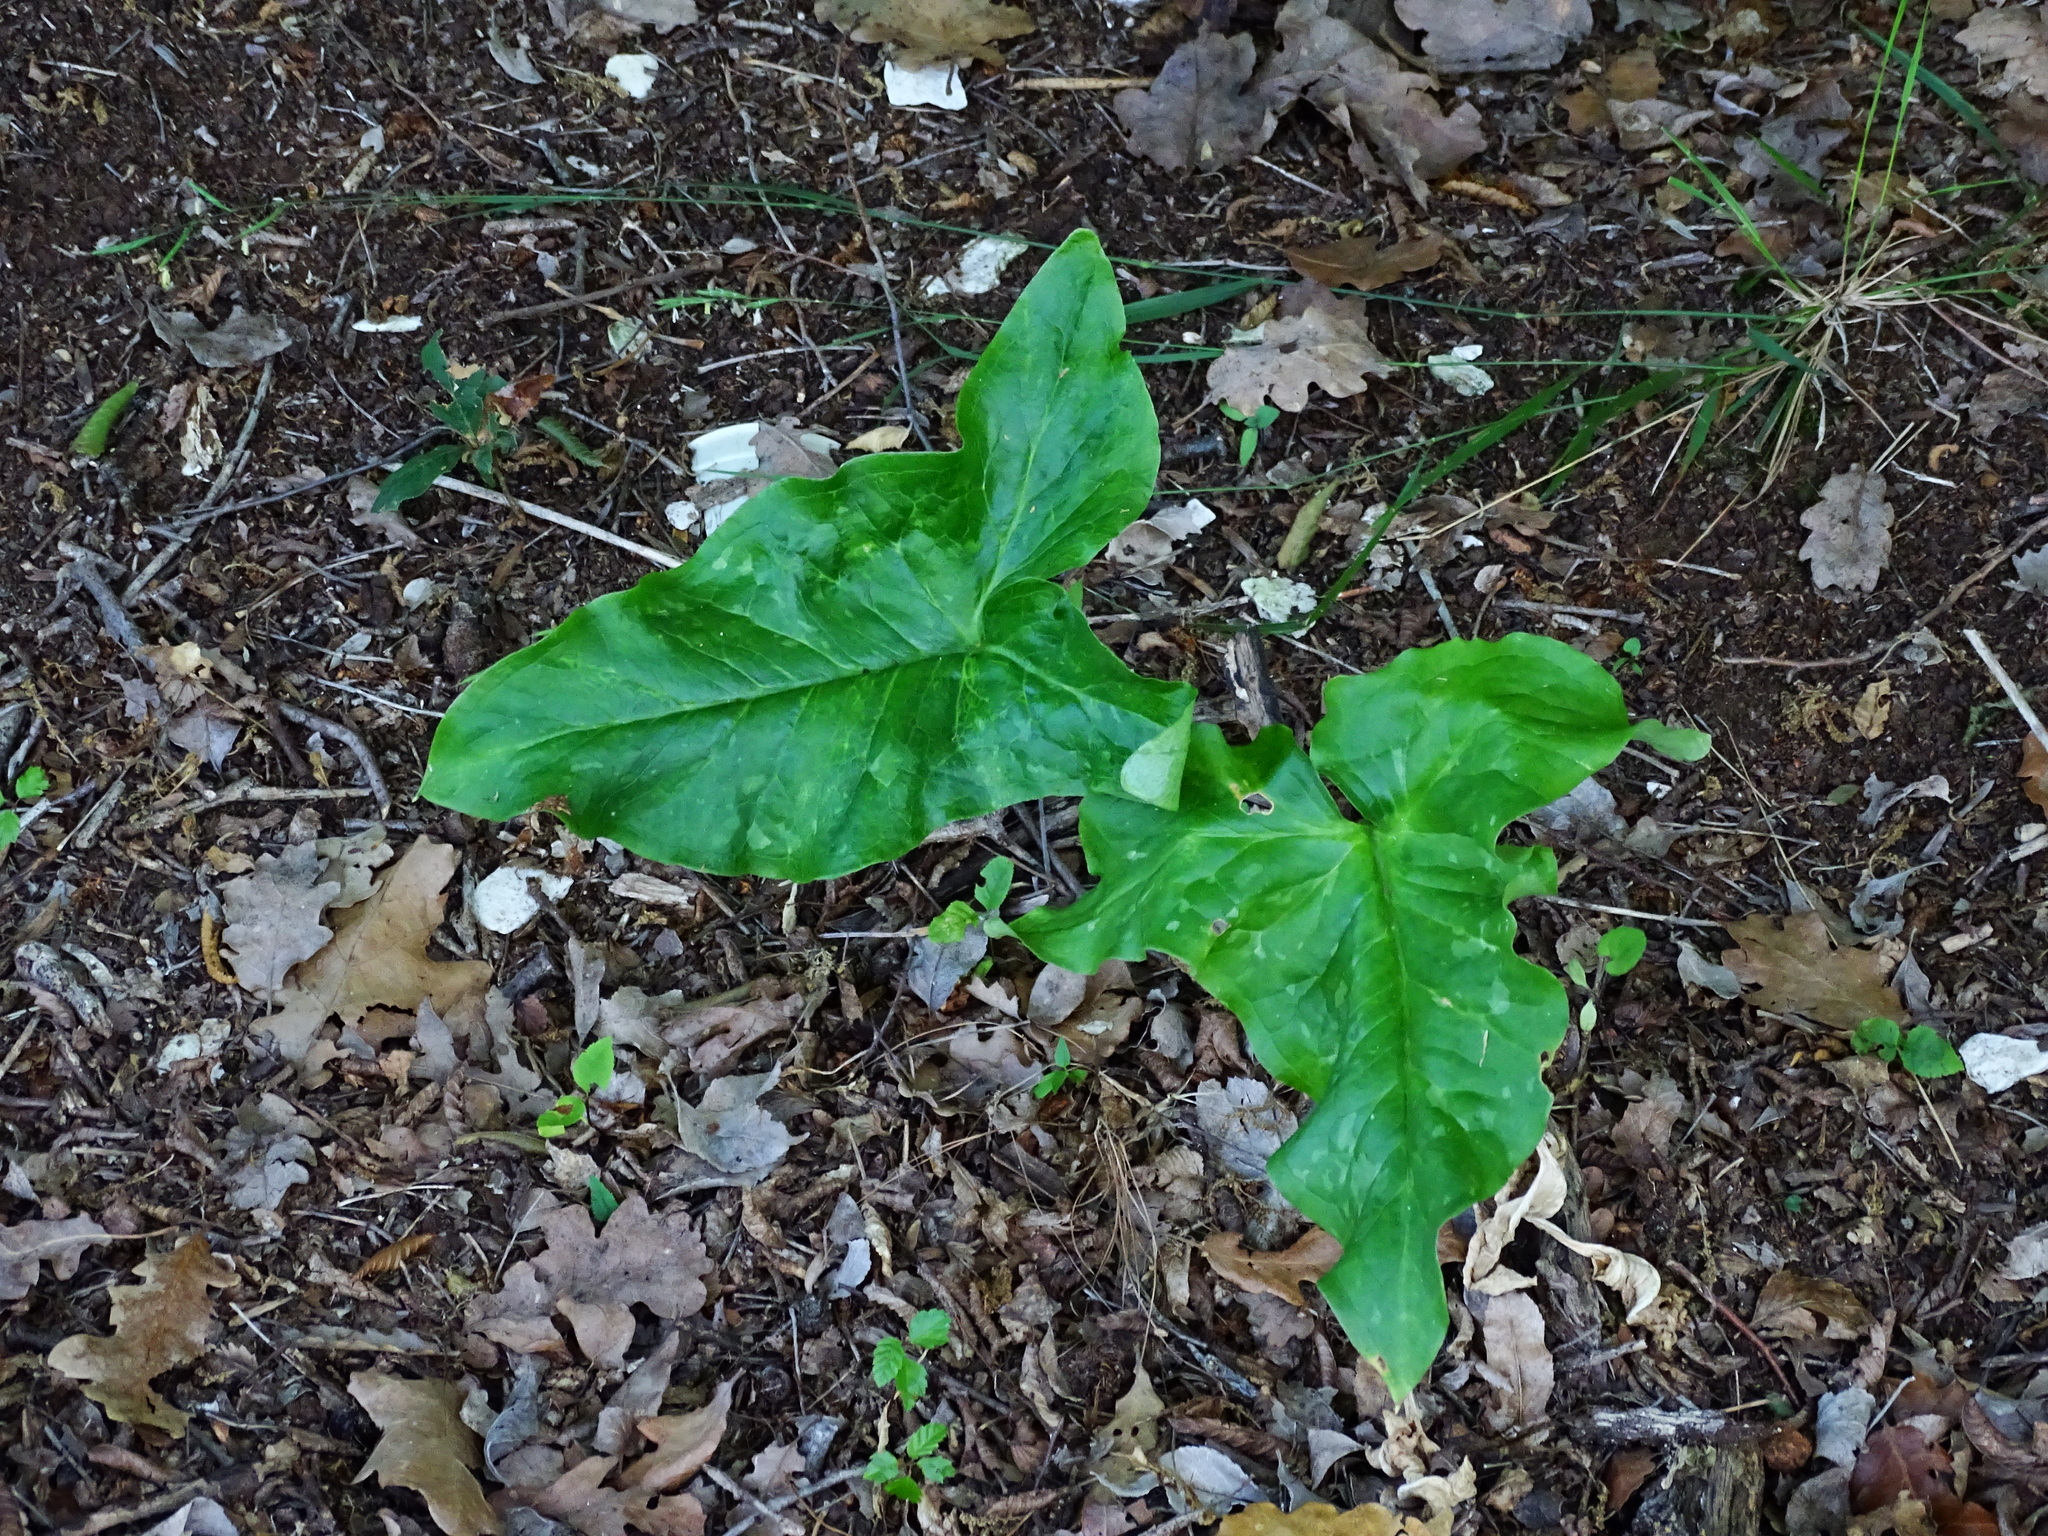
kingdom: Plantae
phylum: Tracheophyta
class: Liliopsida
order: Alismatales
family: Araceae
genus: Arum
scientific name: Arum italicum
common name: Italian lords-and-ladies
